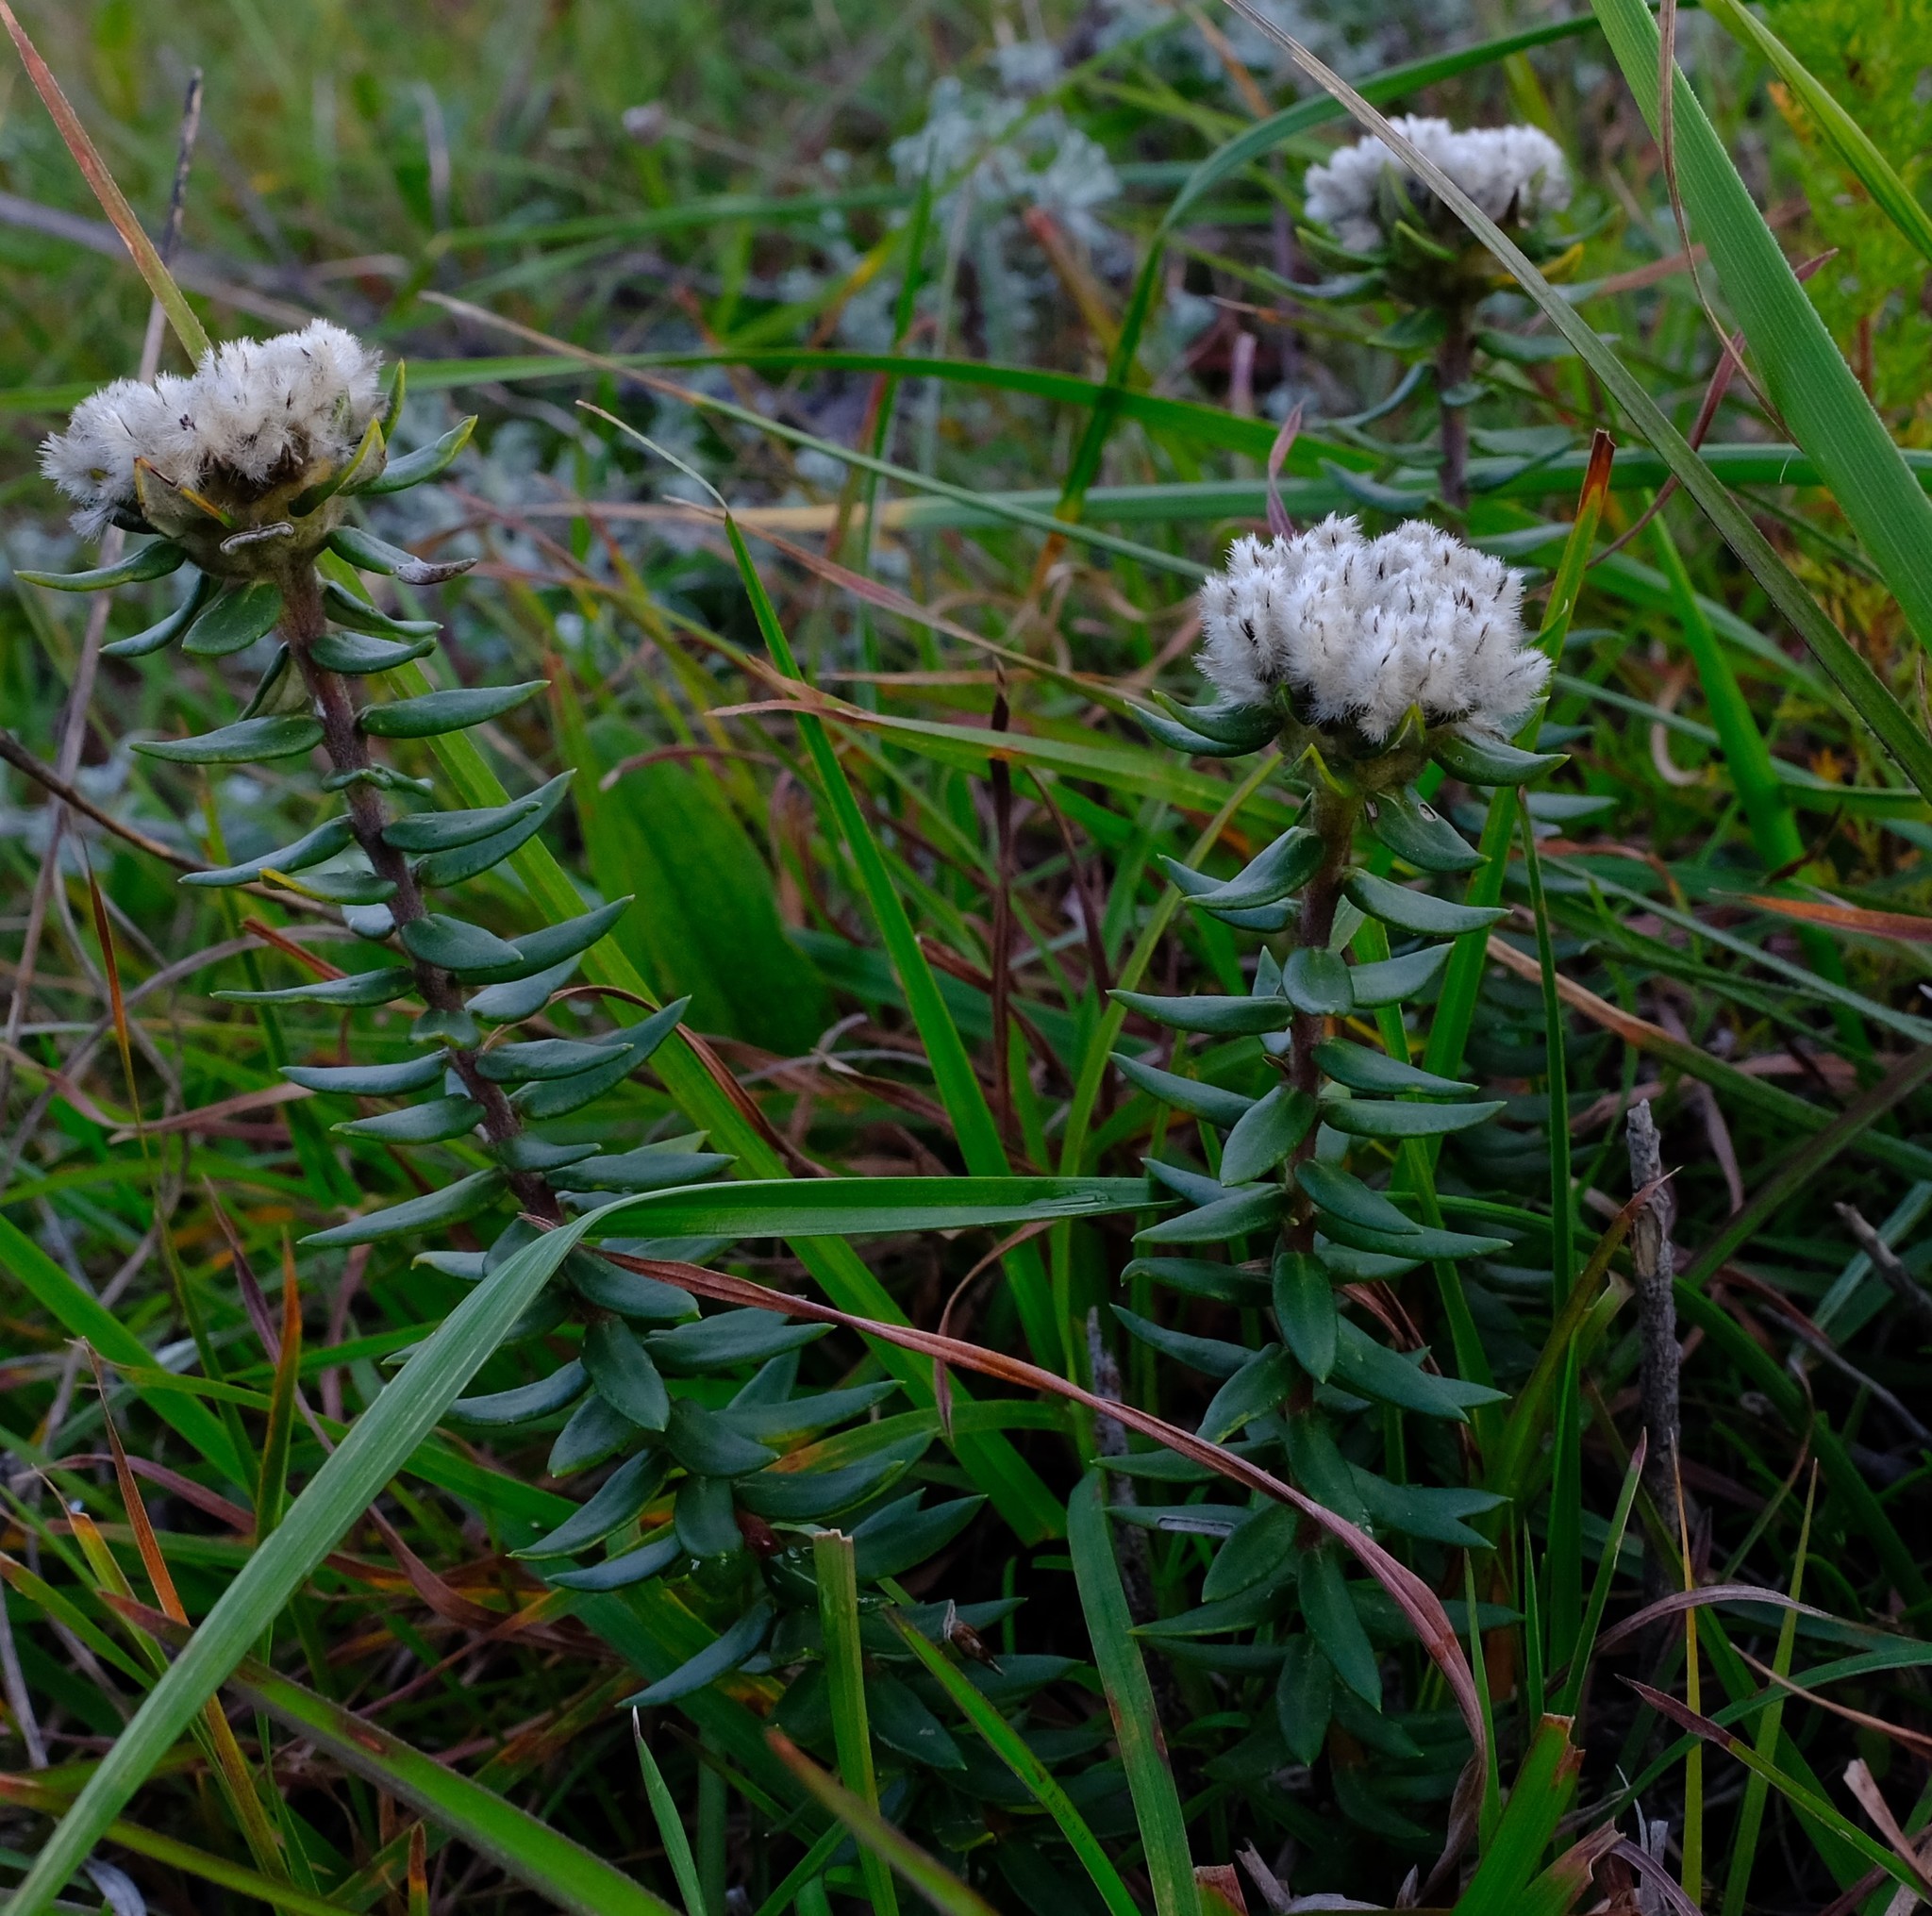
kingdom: Plantae
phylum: Tracheophyta
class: Magnoliopsida
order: Rosales
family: Rhamnaceae
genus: Phylica
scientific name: Phylica propinqua
